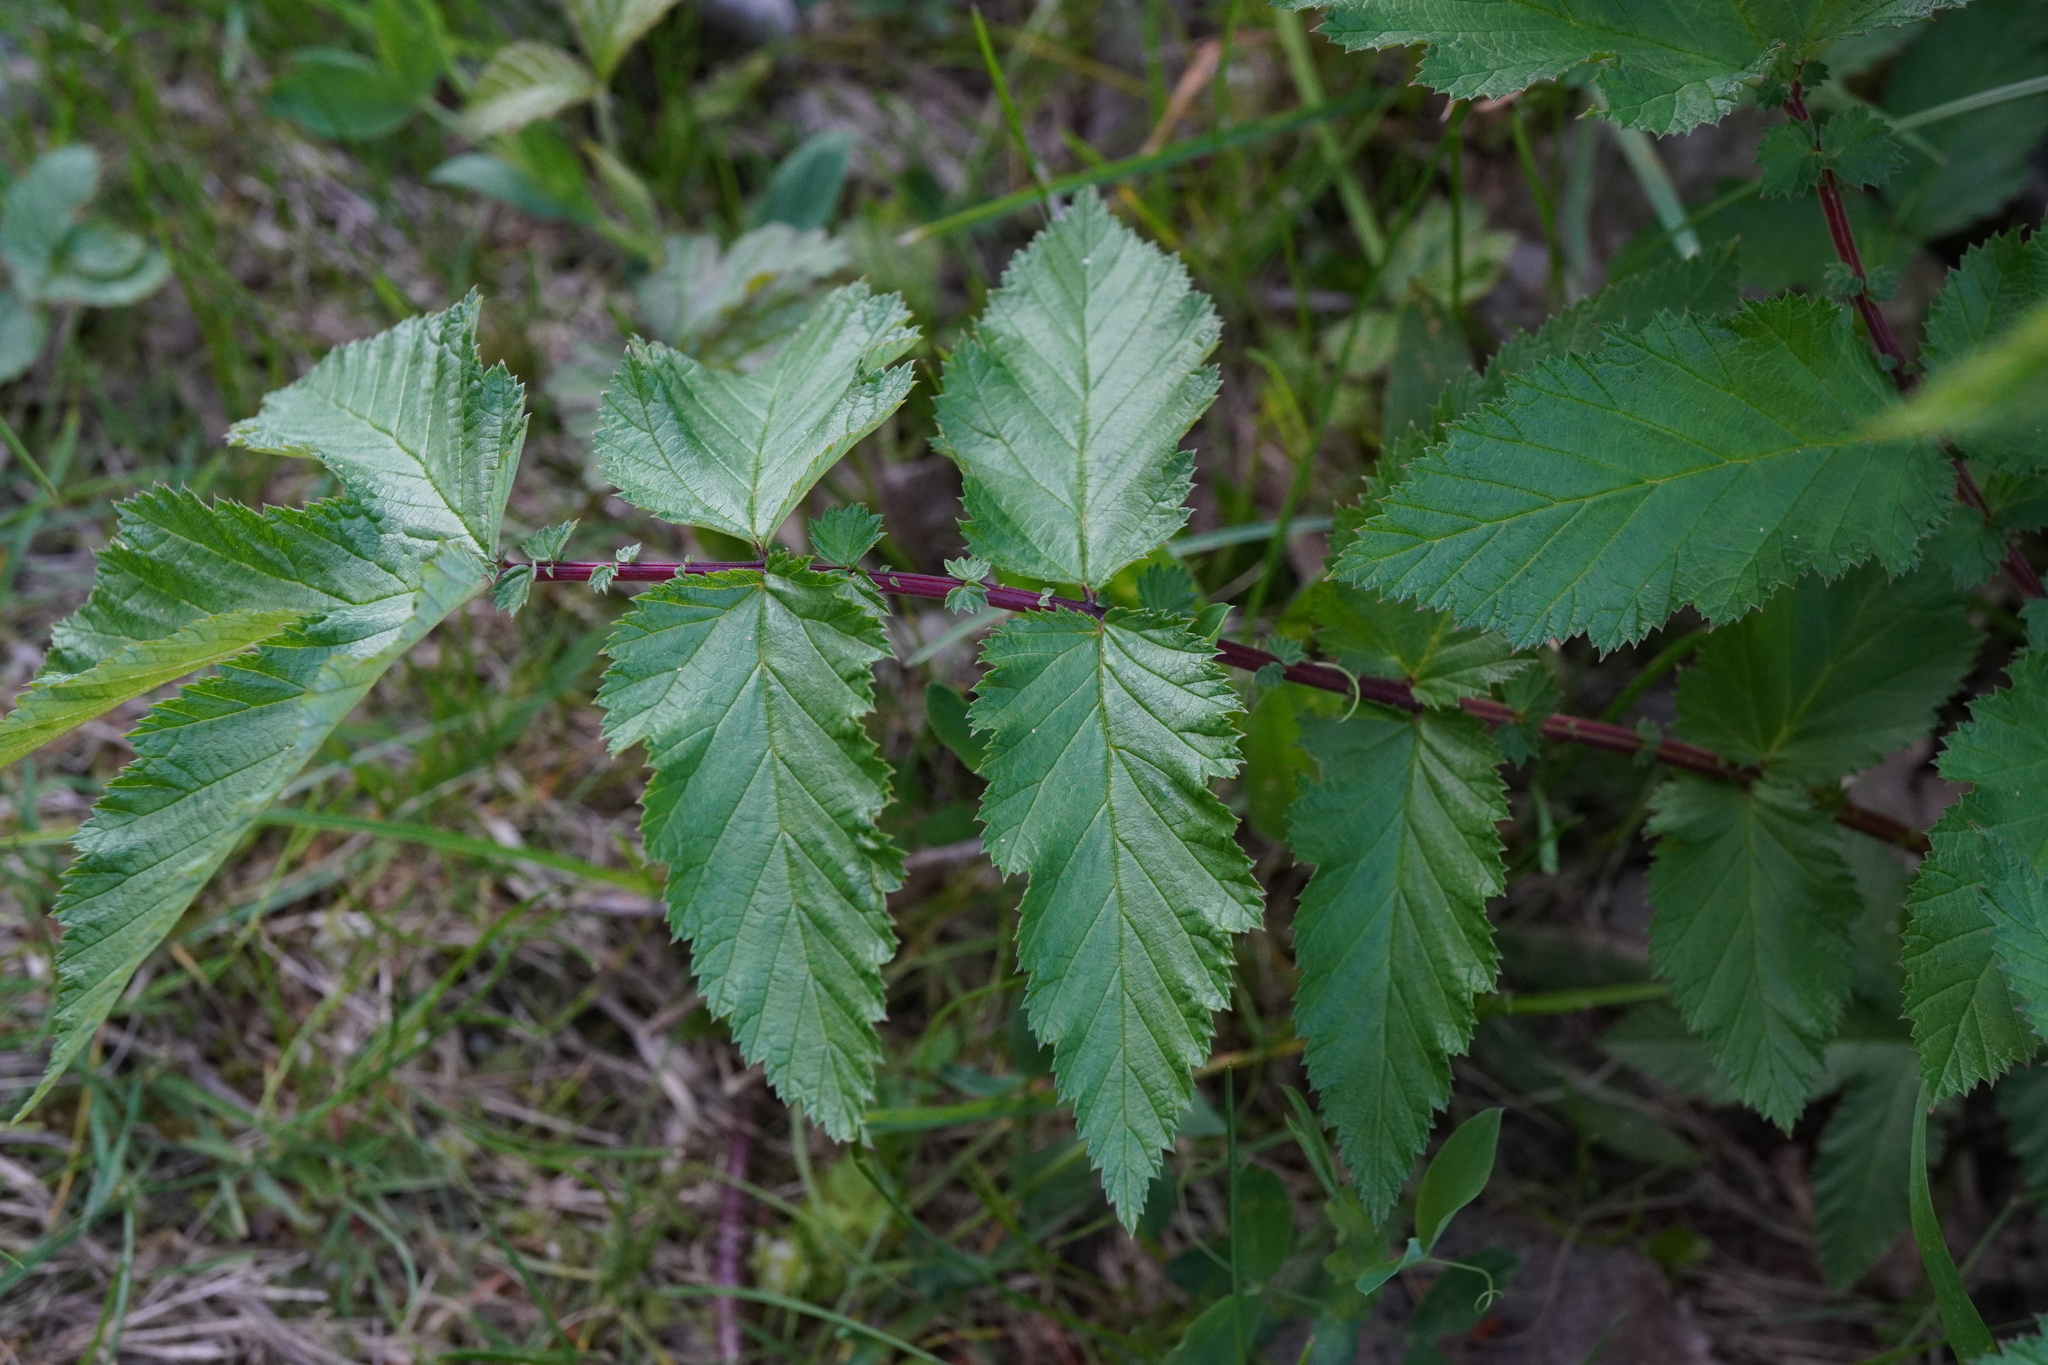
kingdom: Plantae
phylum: Tracheophyta
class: Magnoliopsida
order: Rosales
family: Rosaceae
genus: Filipendula
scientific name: Filipendula ulmaria
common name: Meadowsweet
